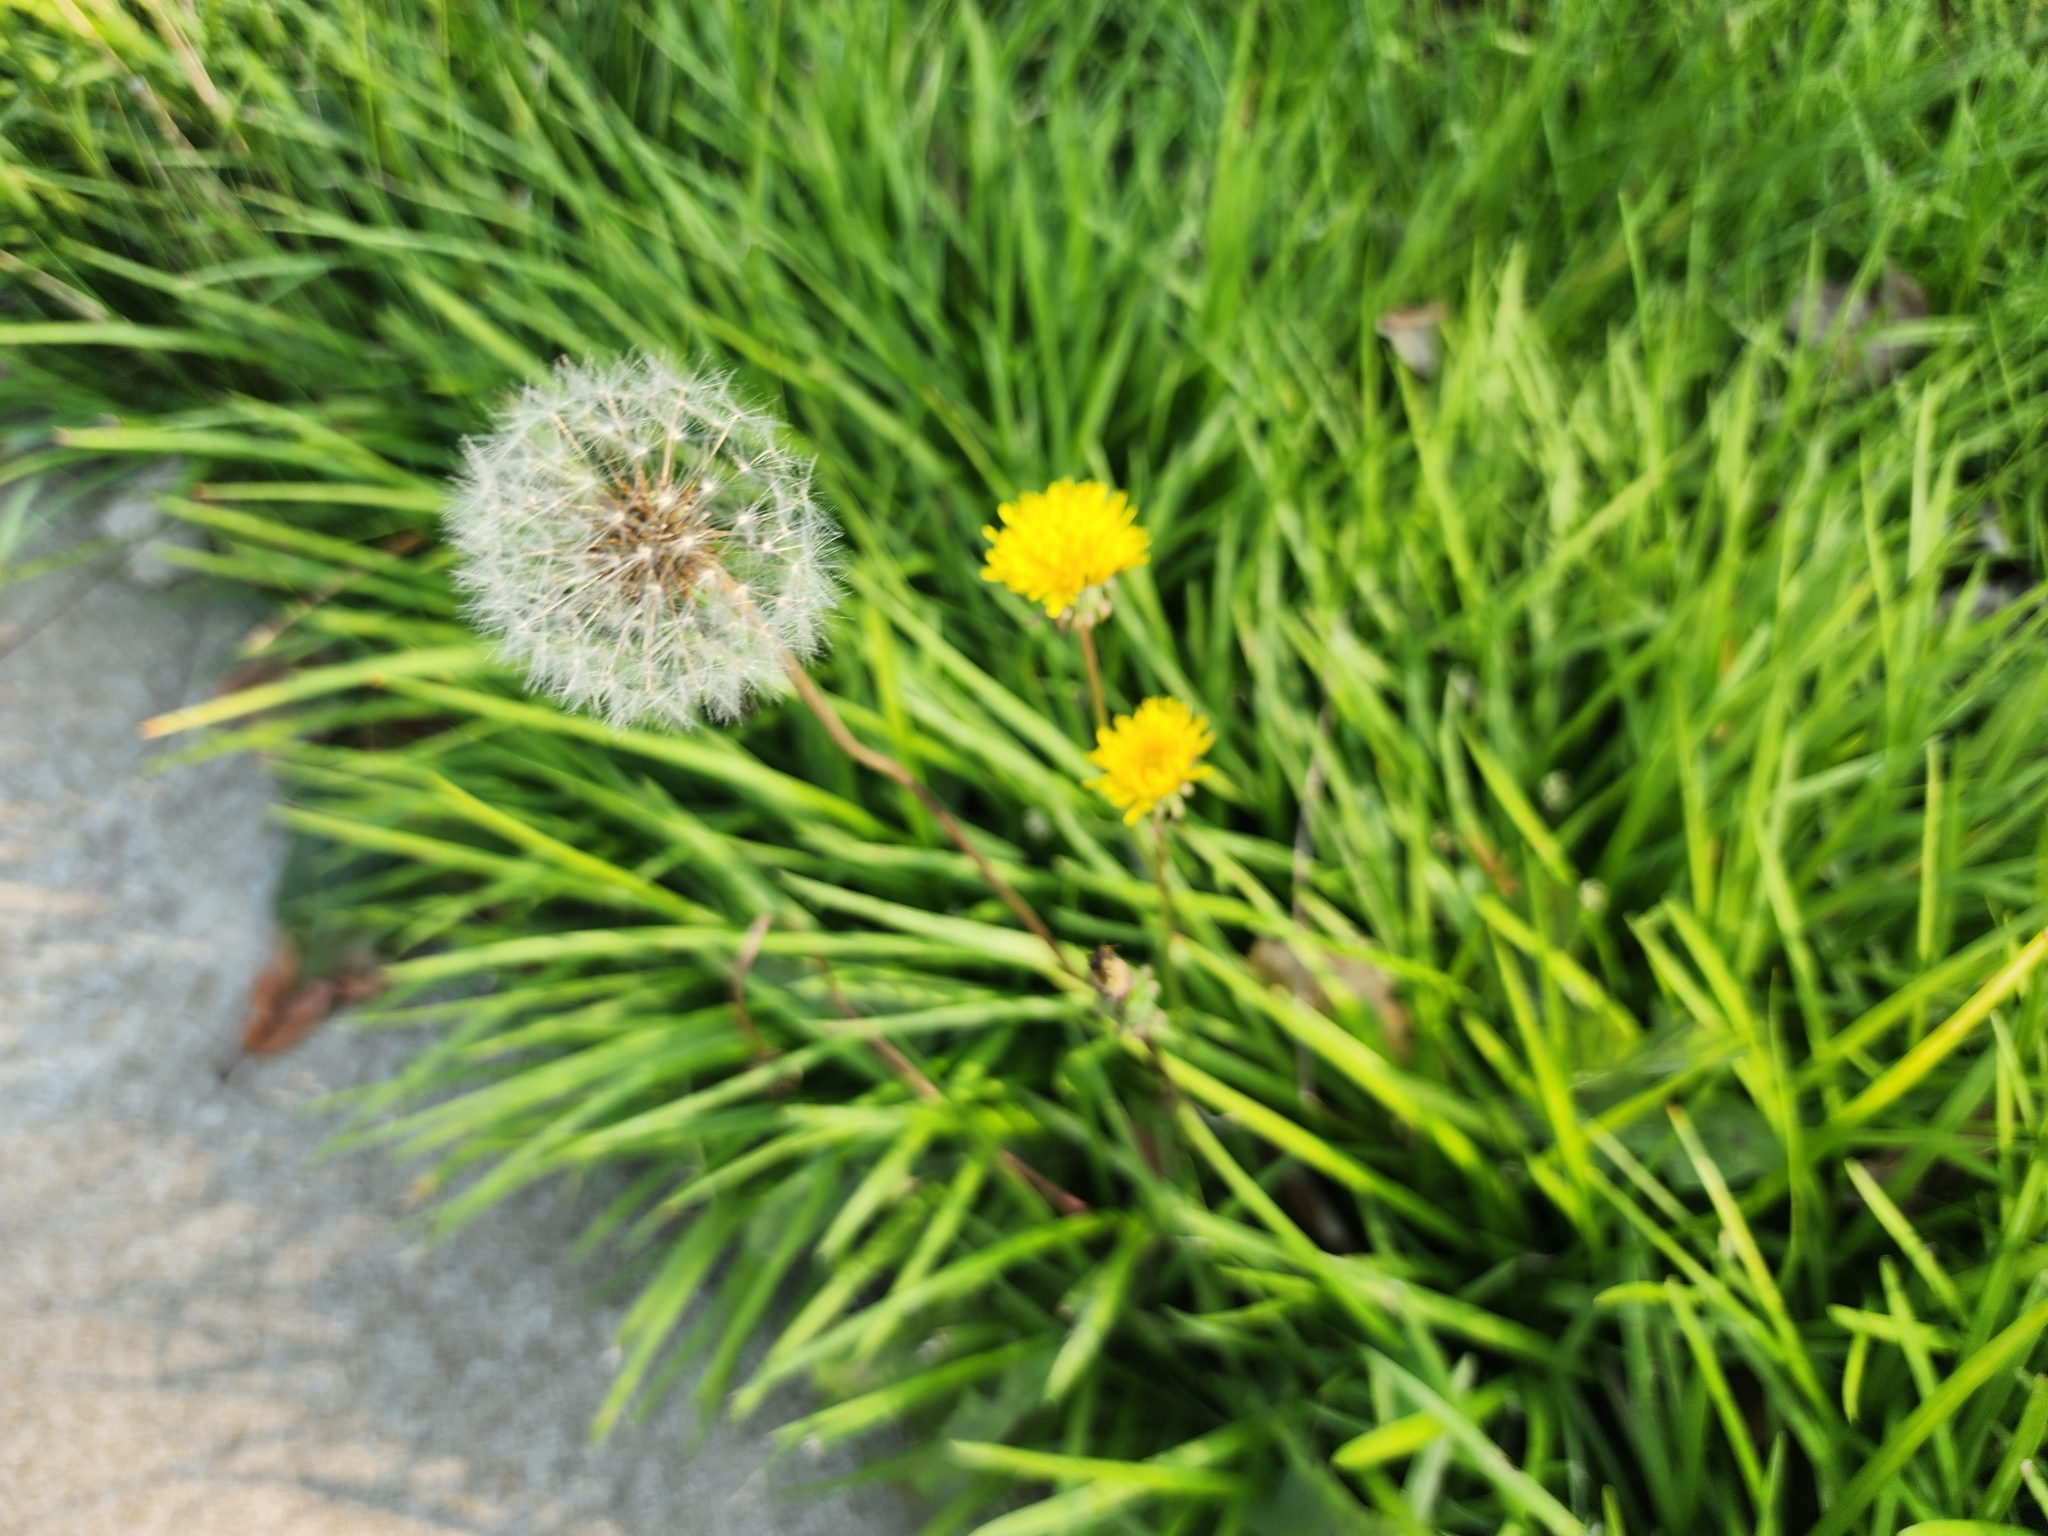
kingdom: Plantae
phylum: Tracheophyta
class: Magnoliopsida
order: Asterales
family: Asteraceae
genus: Taraxacum
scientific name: Taraxacum officinale
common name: Common dandelion
